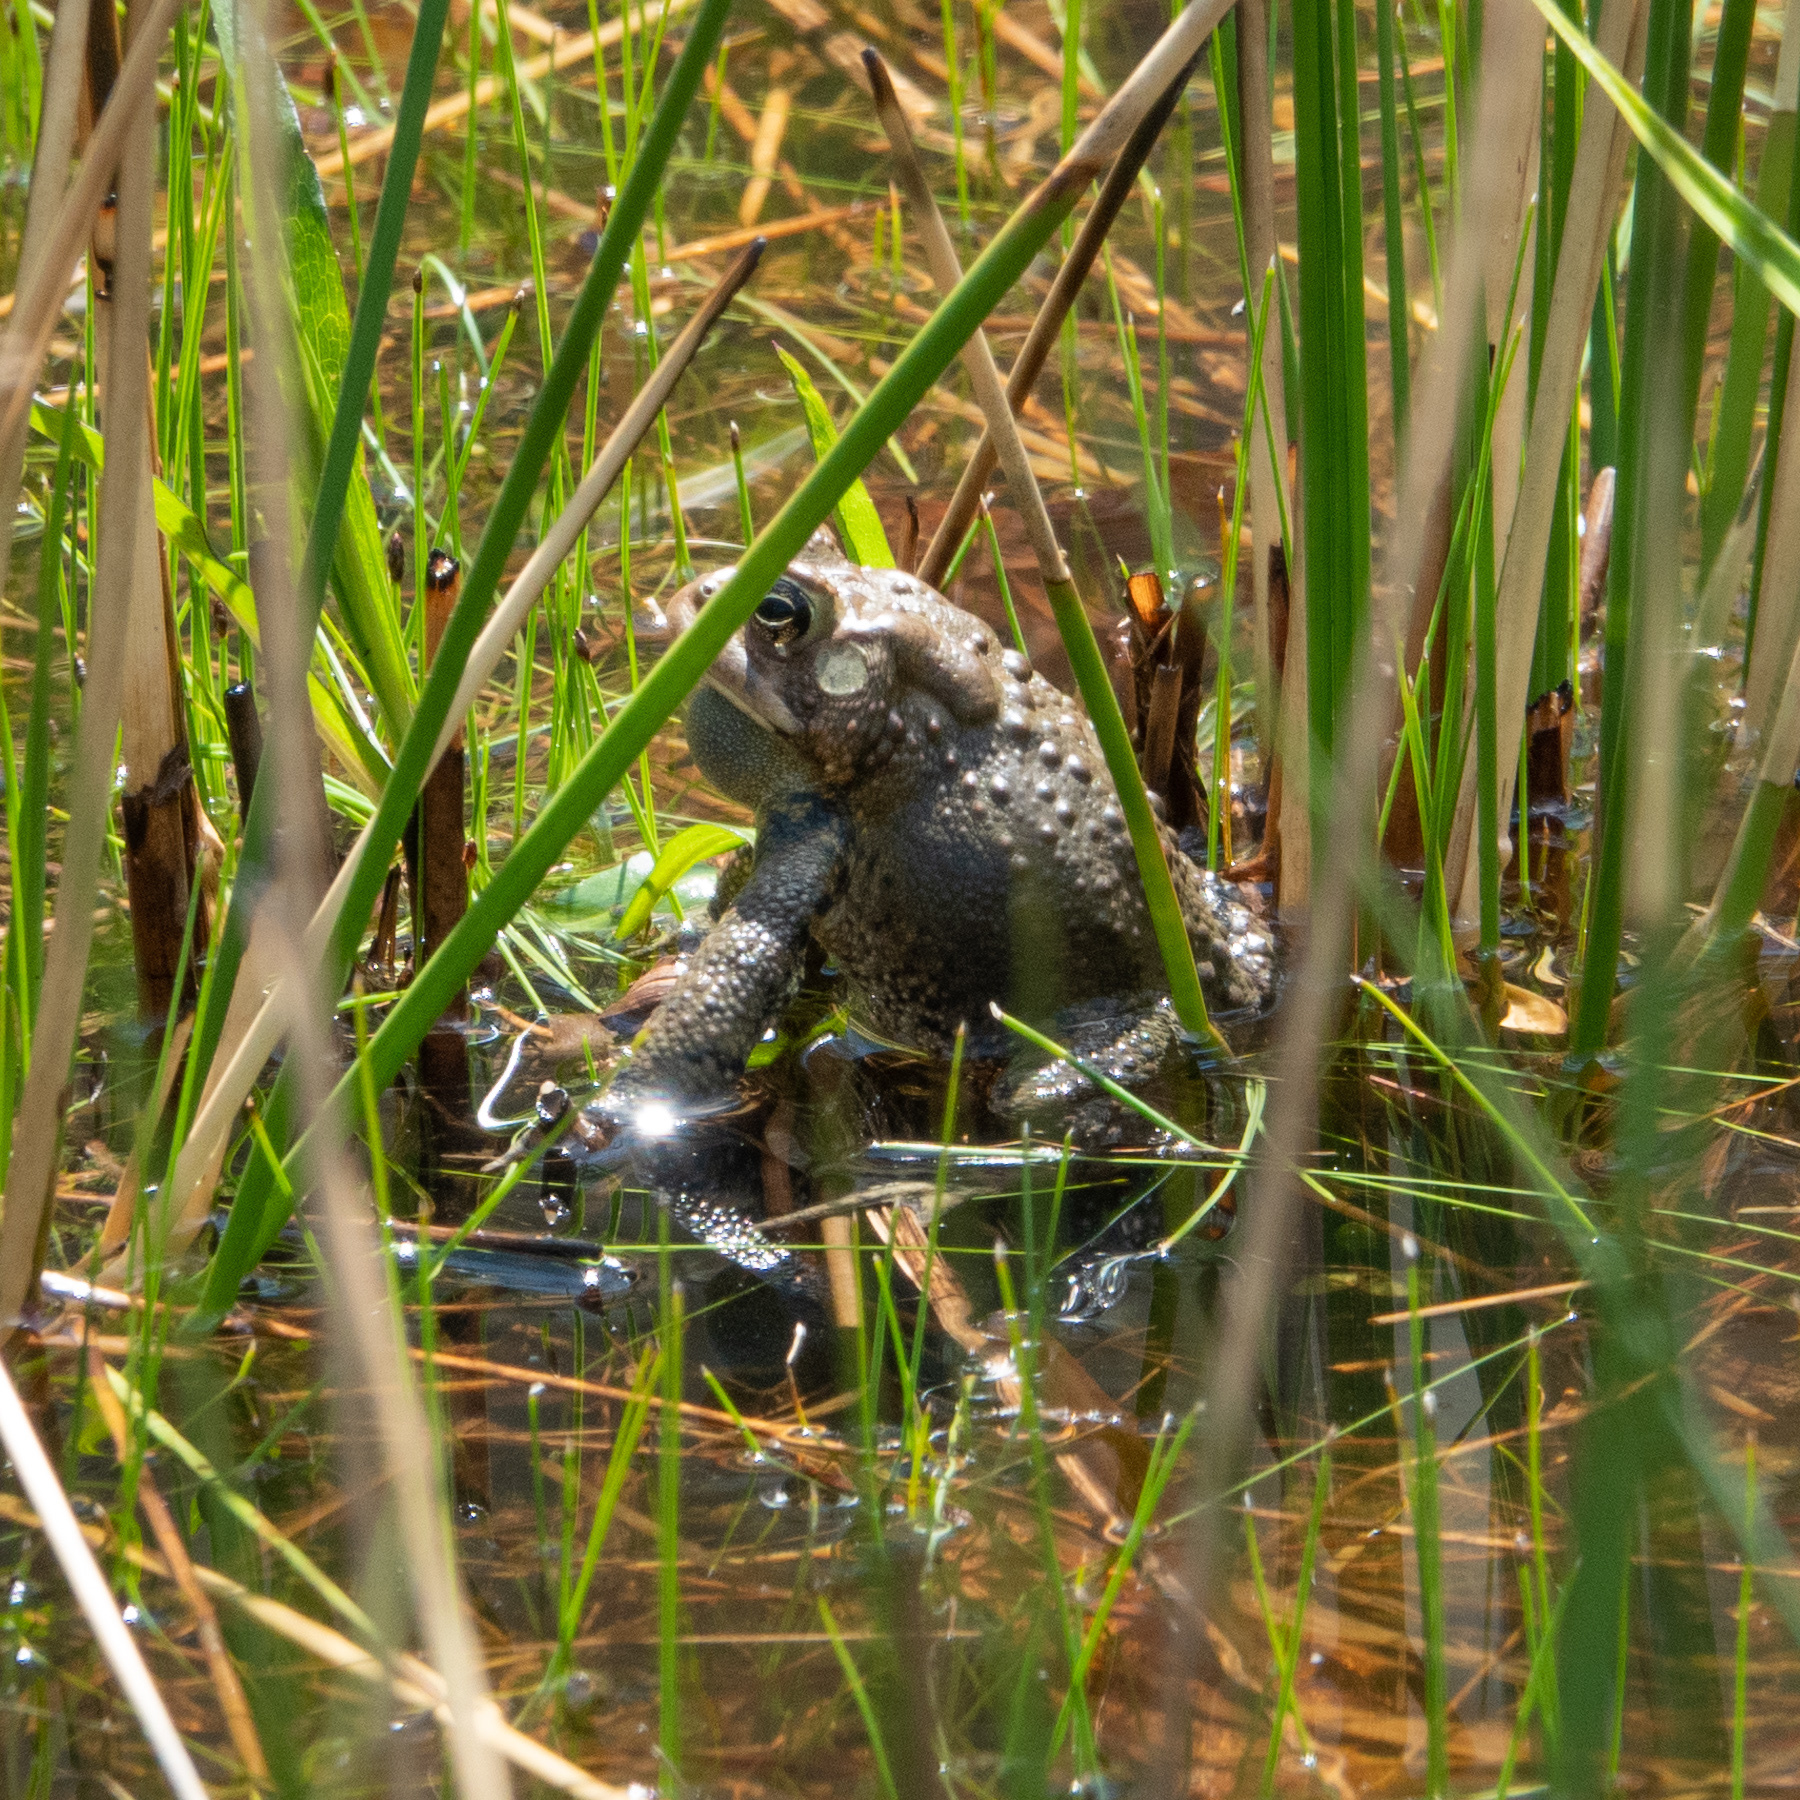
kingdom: Animalia
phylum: Chordata
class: Amphibia
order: Anura
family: Bufonidae
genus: Anaxyrus
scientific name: Anaxyrus americanus
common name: American toad
